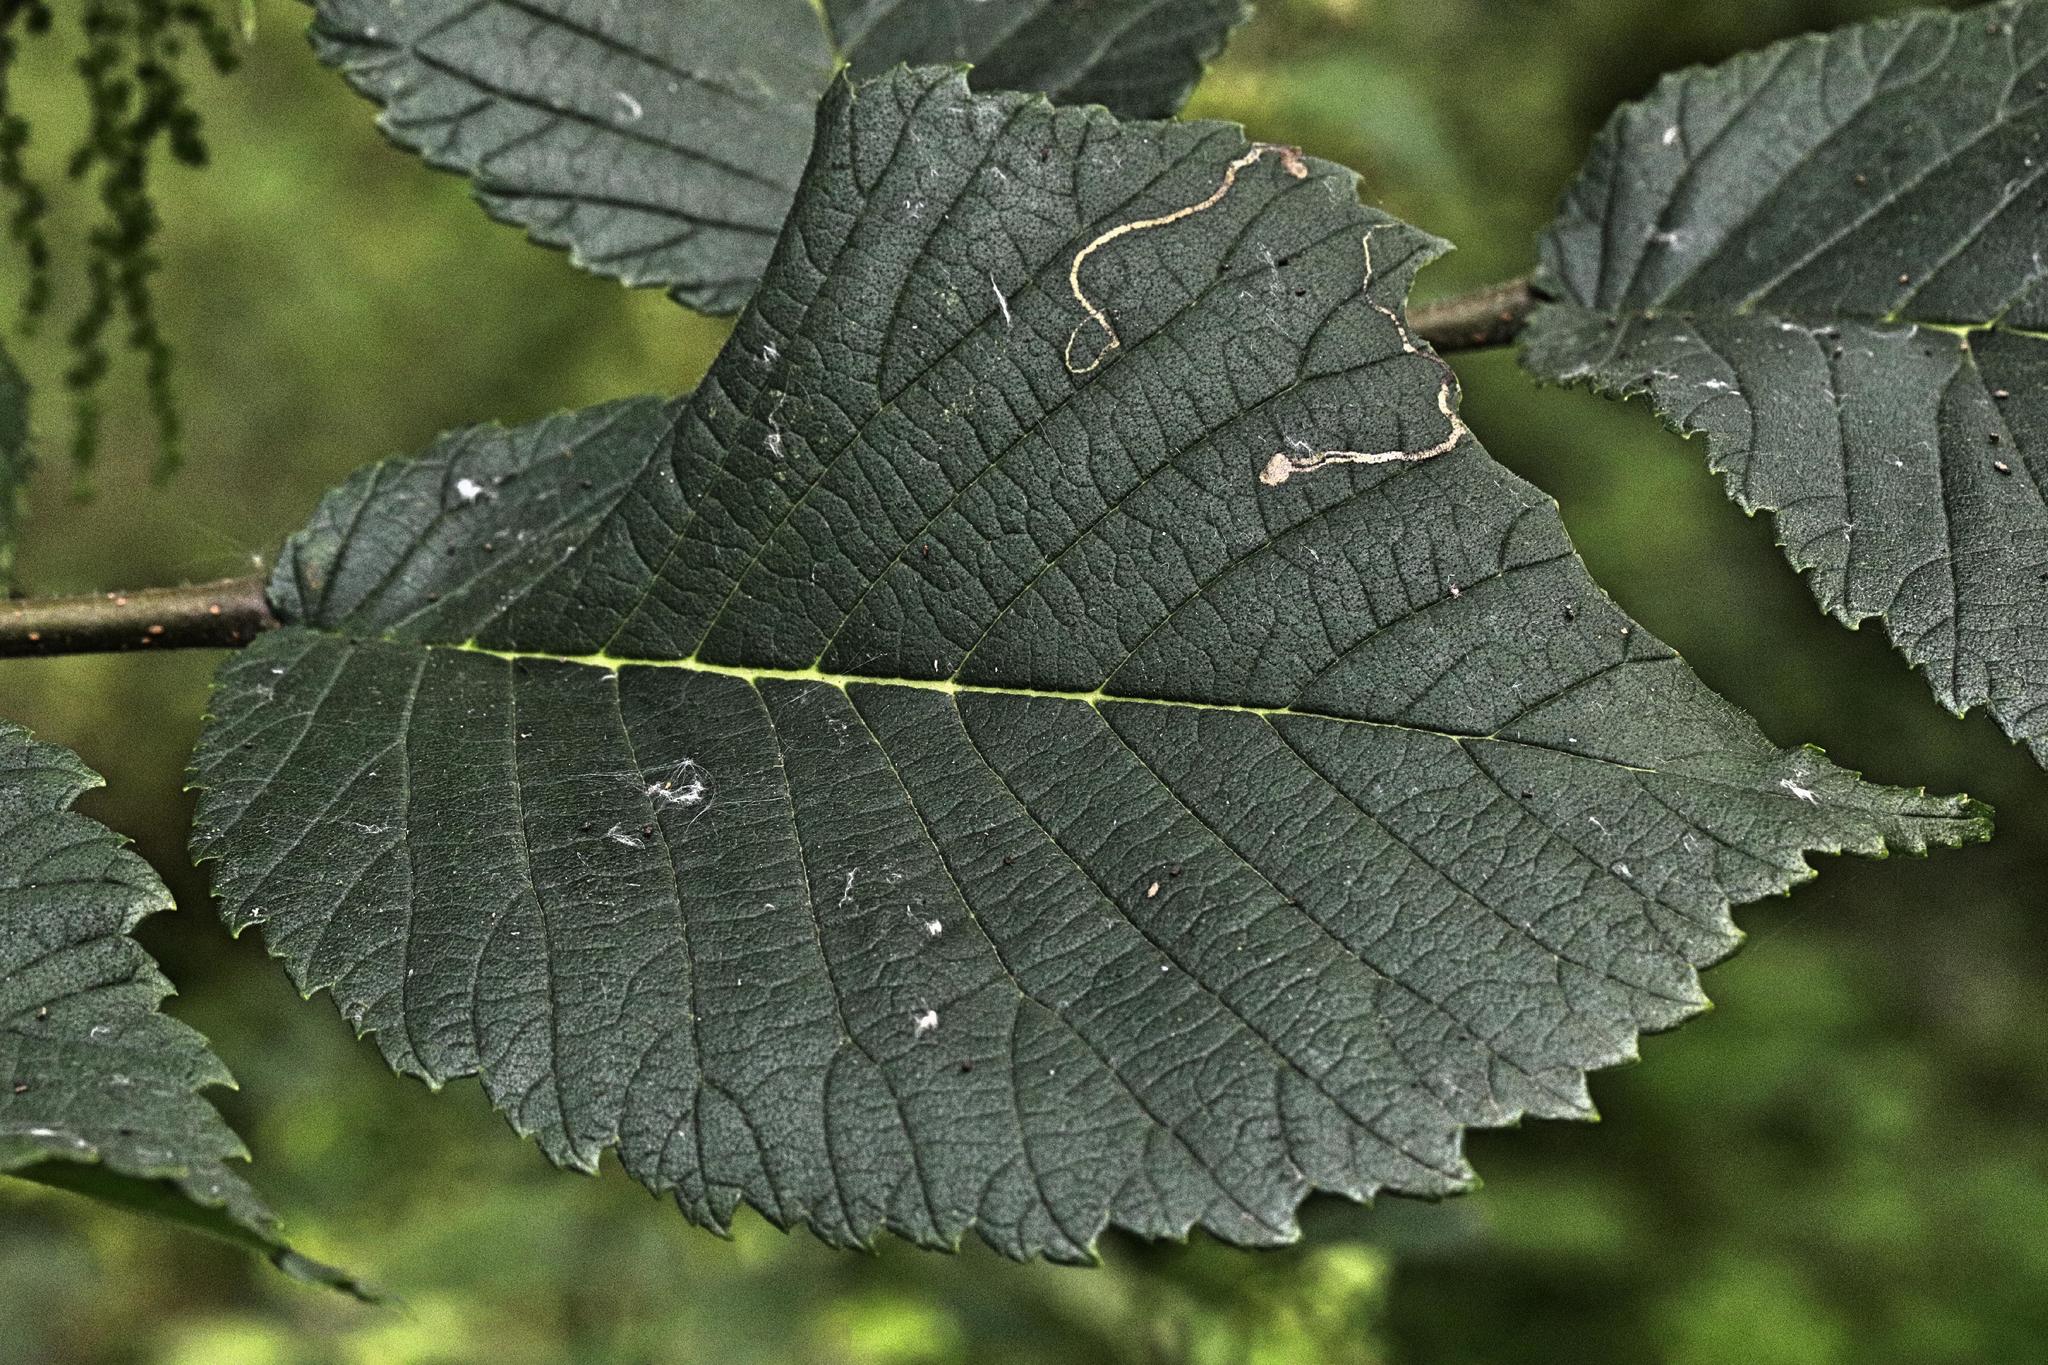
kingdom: Animalia
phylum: Arthropoda
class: Insecta
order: Lepidoptera
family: Nepticulidae
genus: Stigmella
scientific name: Stigmella ulmivora
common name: Barred elm pigmy
